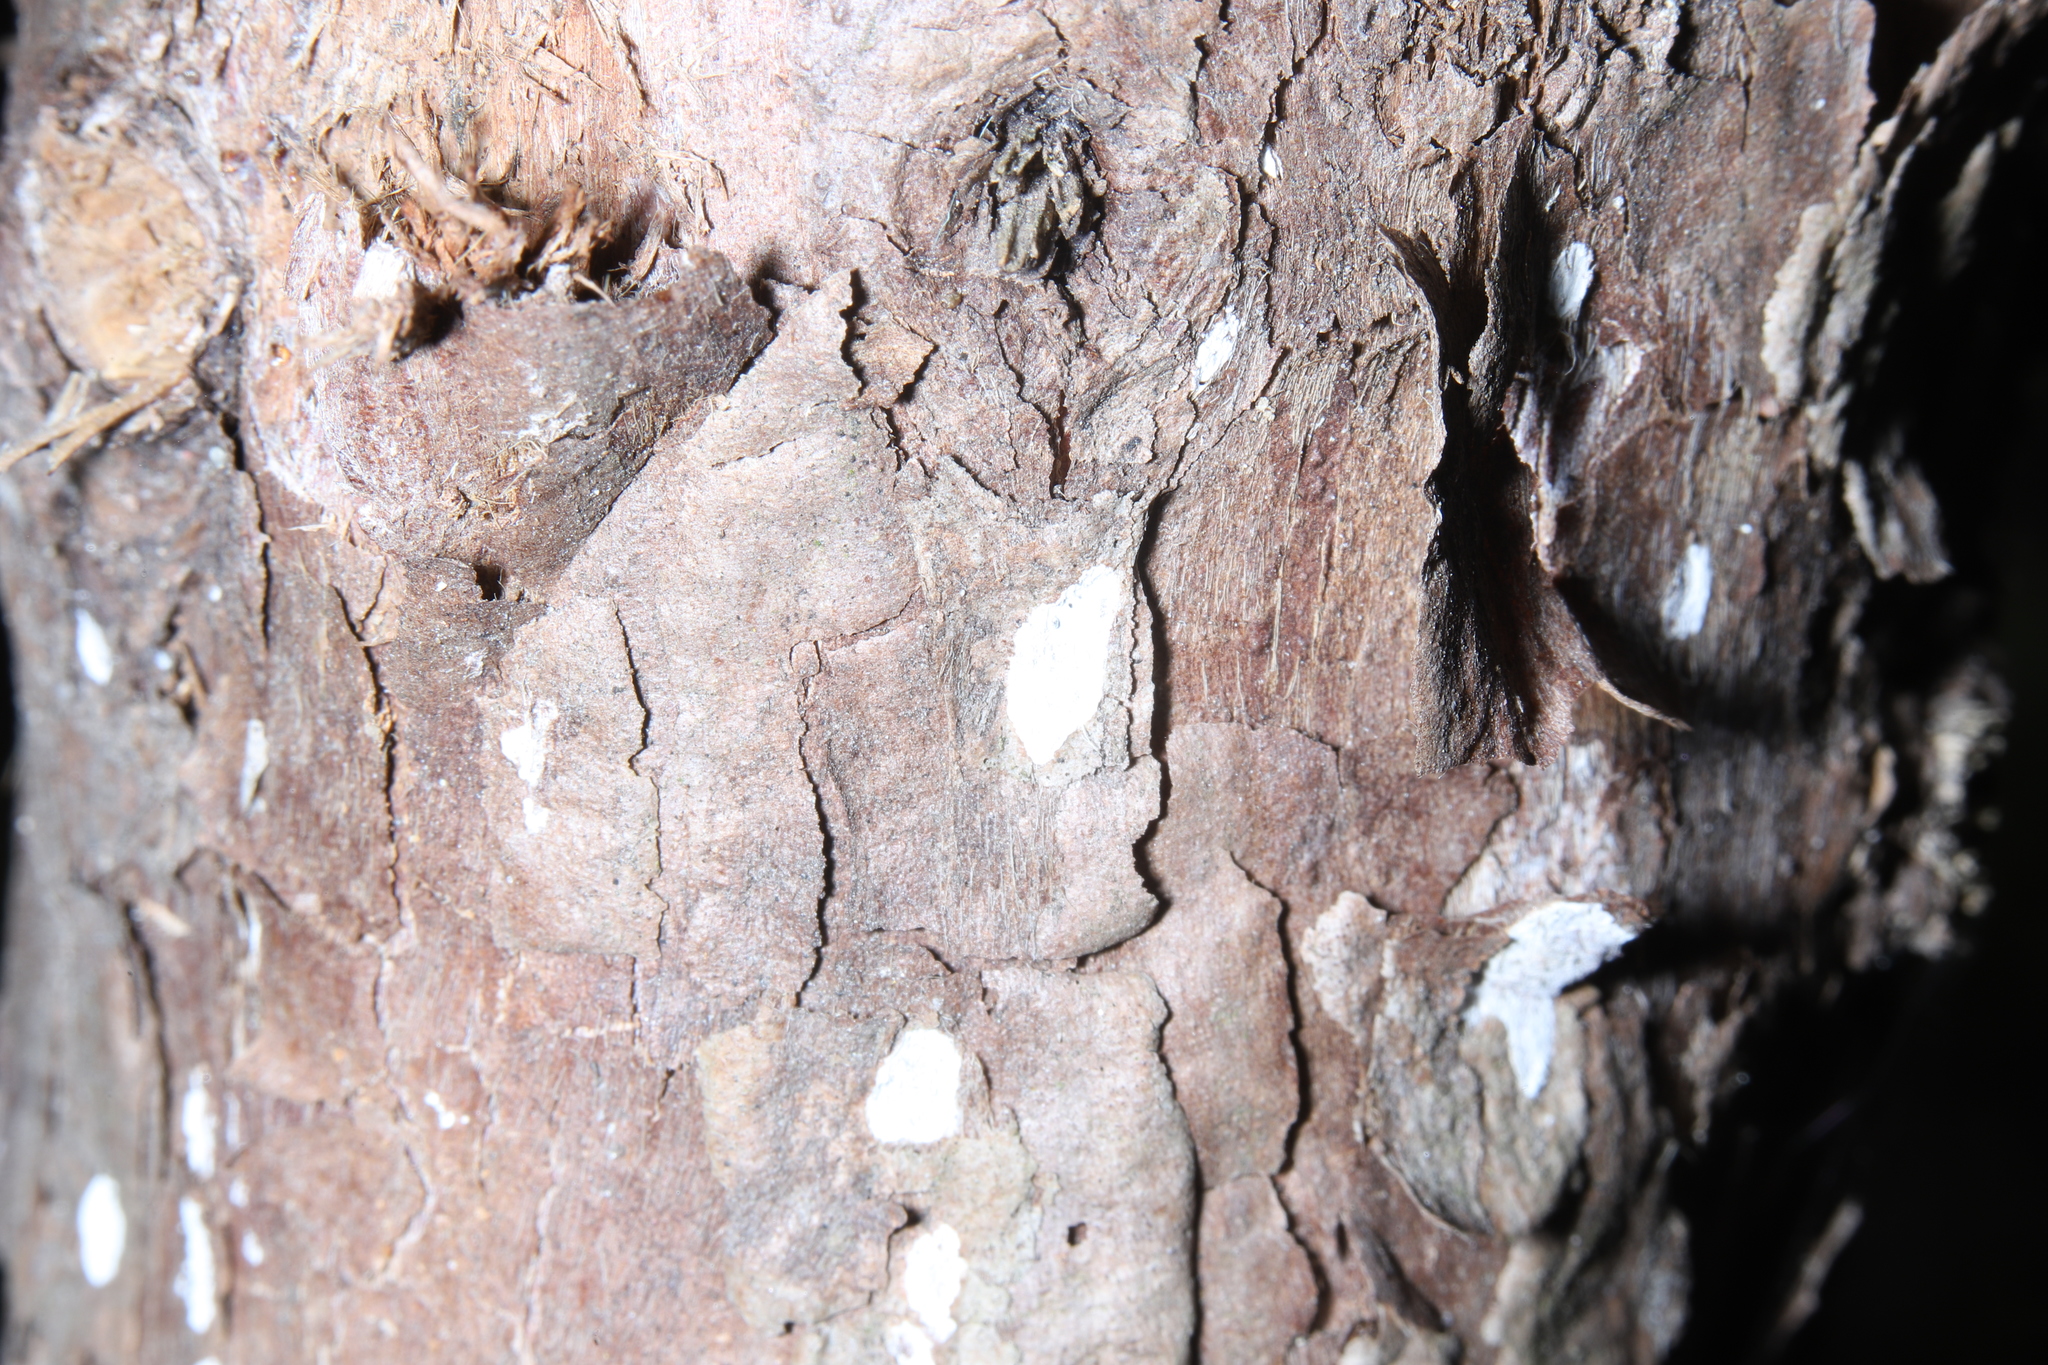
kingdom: Fungi
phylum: Basidiomycota
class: Agaricomycetes
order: Agaricales
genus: Dendrothele
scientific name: Dendrothele nivosa
